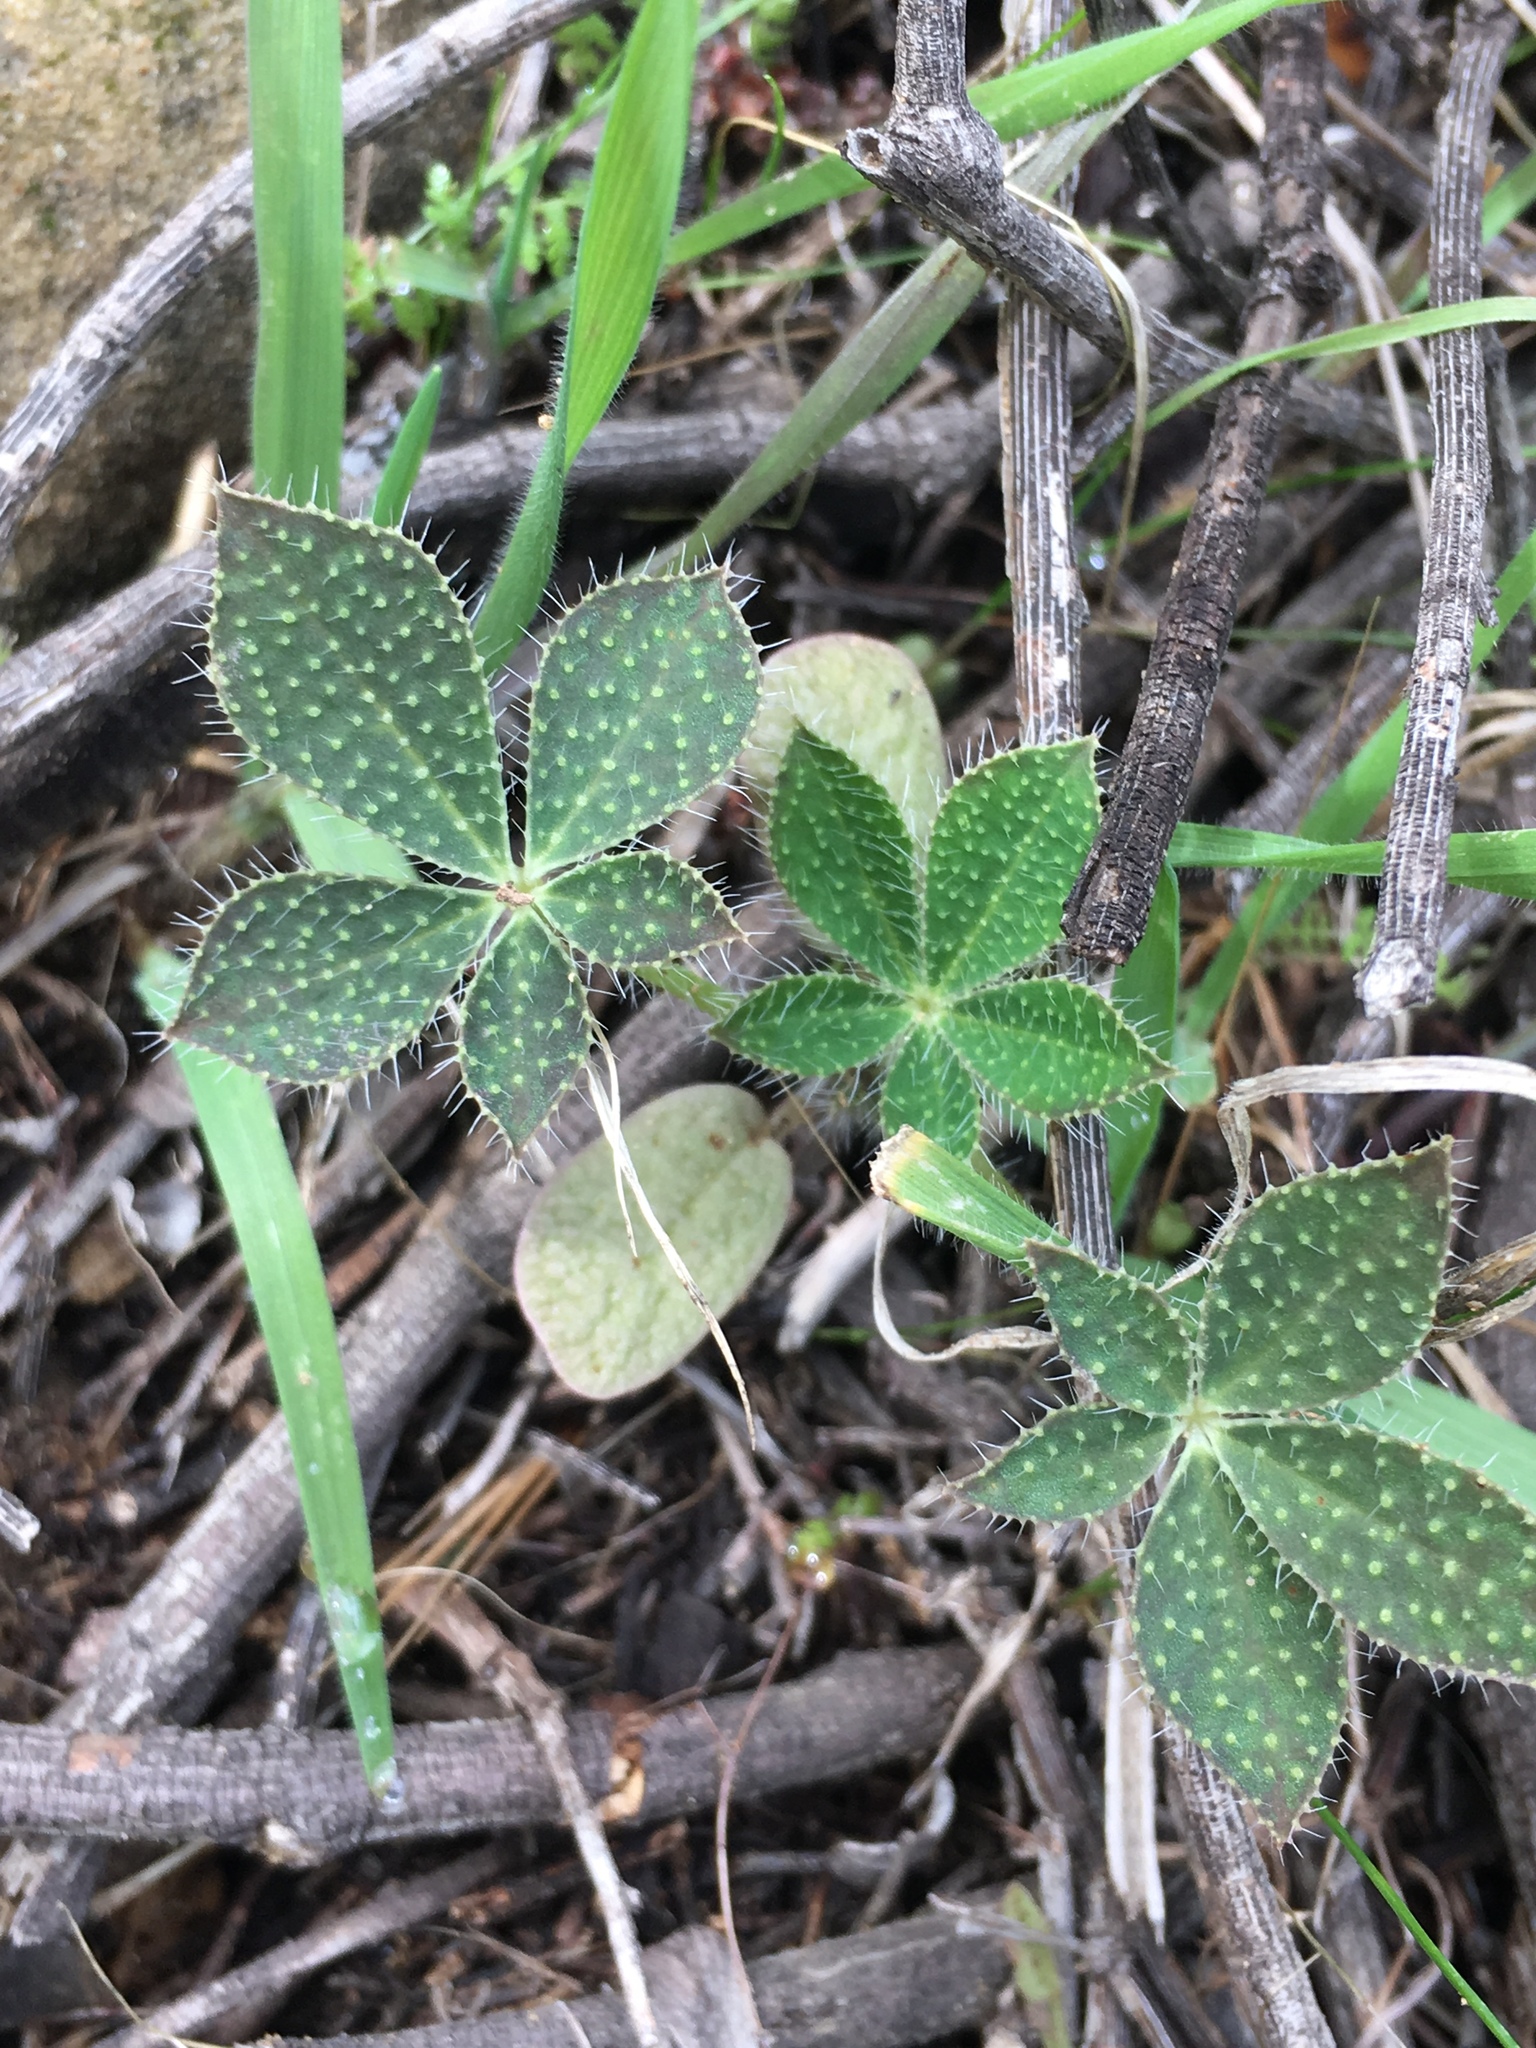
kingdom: Plantae
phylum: Tracheophyta
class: Magnoliopsida
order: Fabales
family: Fabaceae
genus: Lupinus
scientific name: Lupinus hirsutissimus
